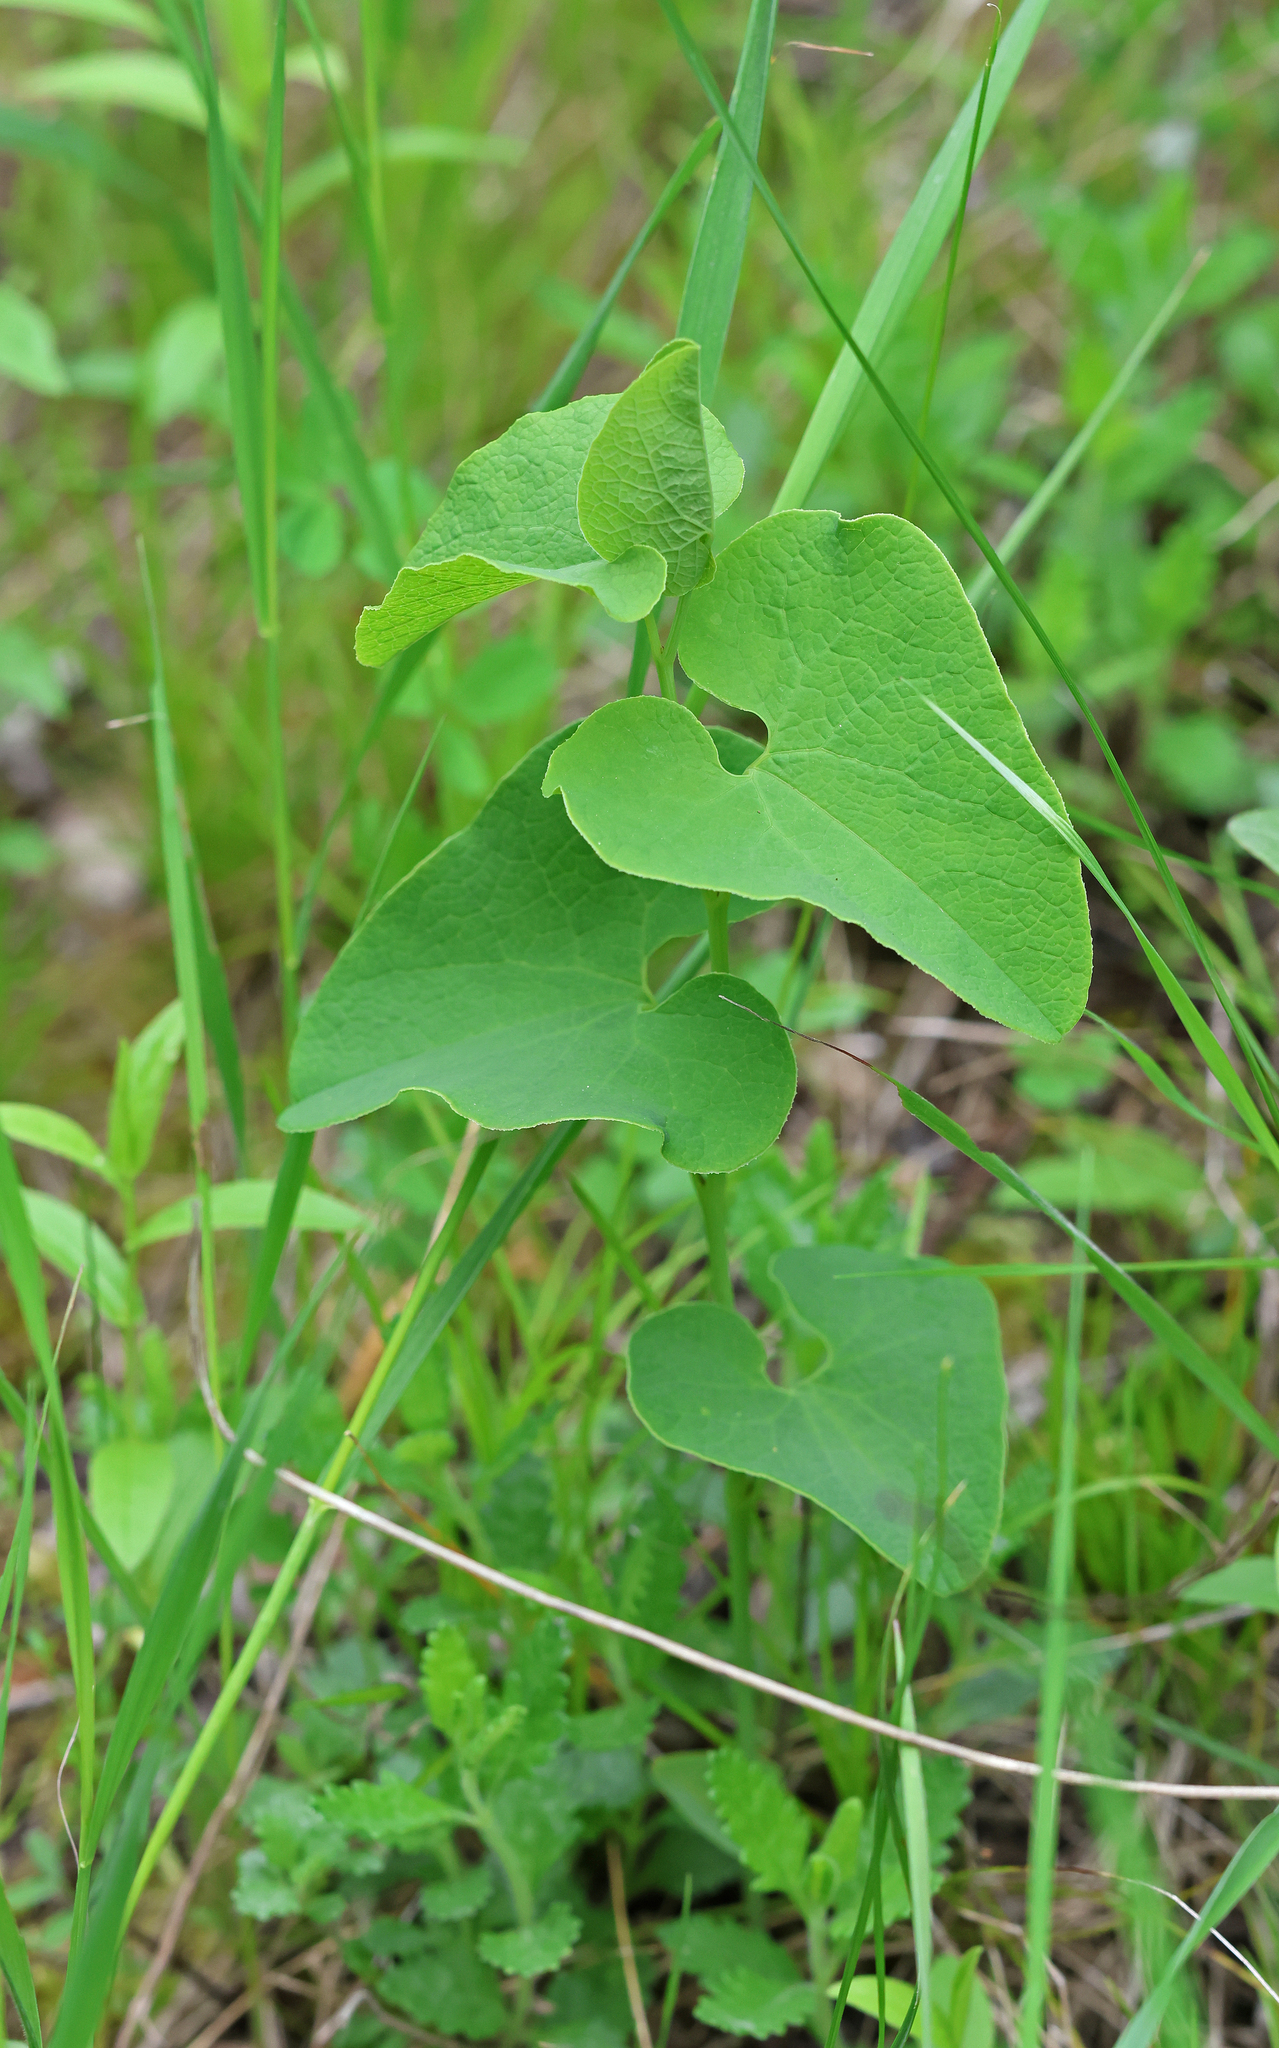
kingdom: Plantae
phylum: Tracheophyta
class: Magnoliopsida
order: Piperales
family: Aristolochiaceae
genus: Aristolochia
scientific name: Aristolochia clematitis
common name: Birthwort
